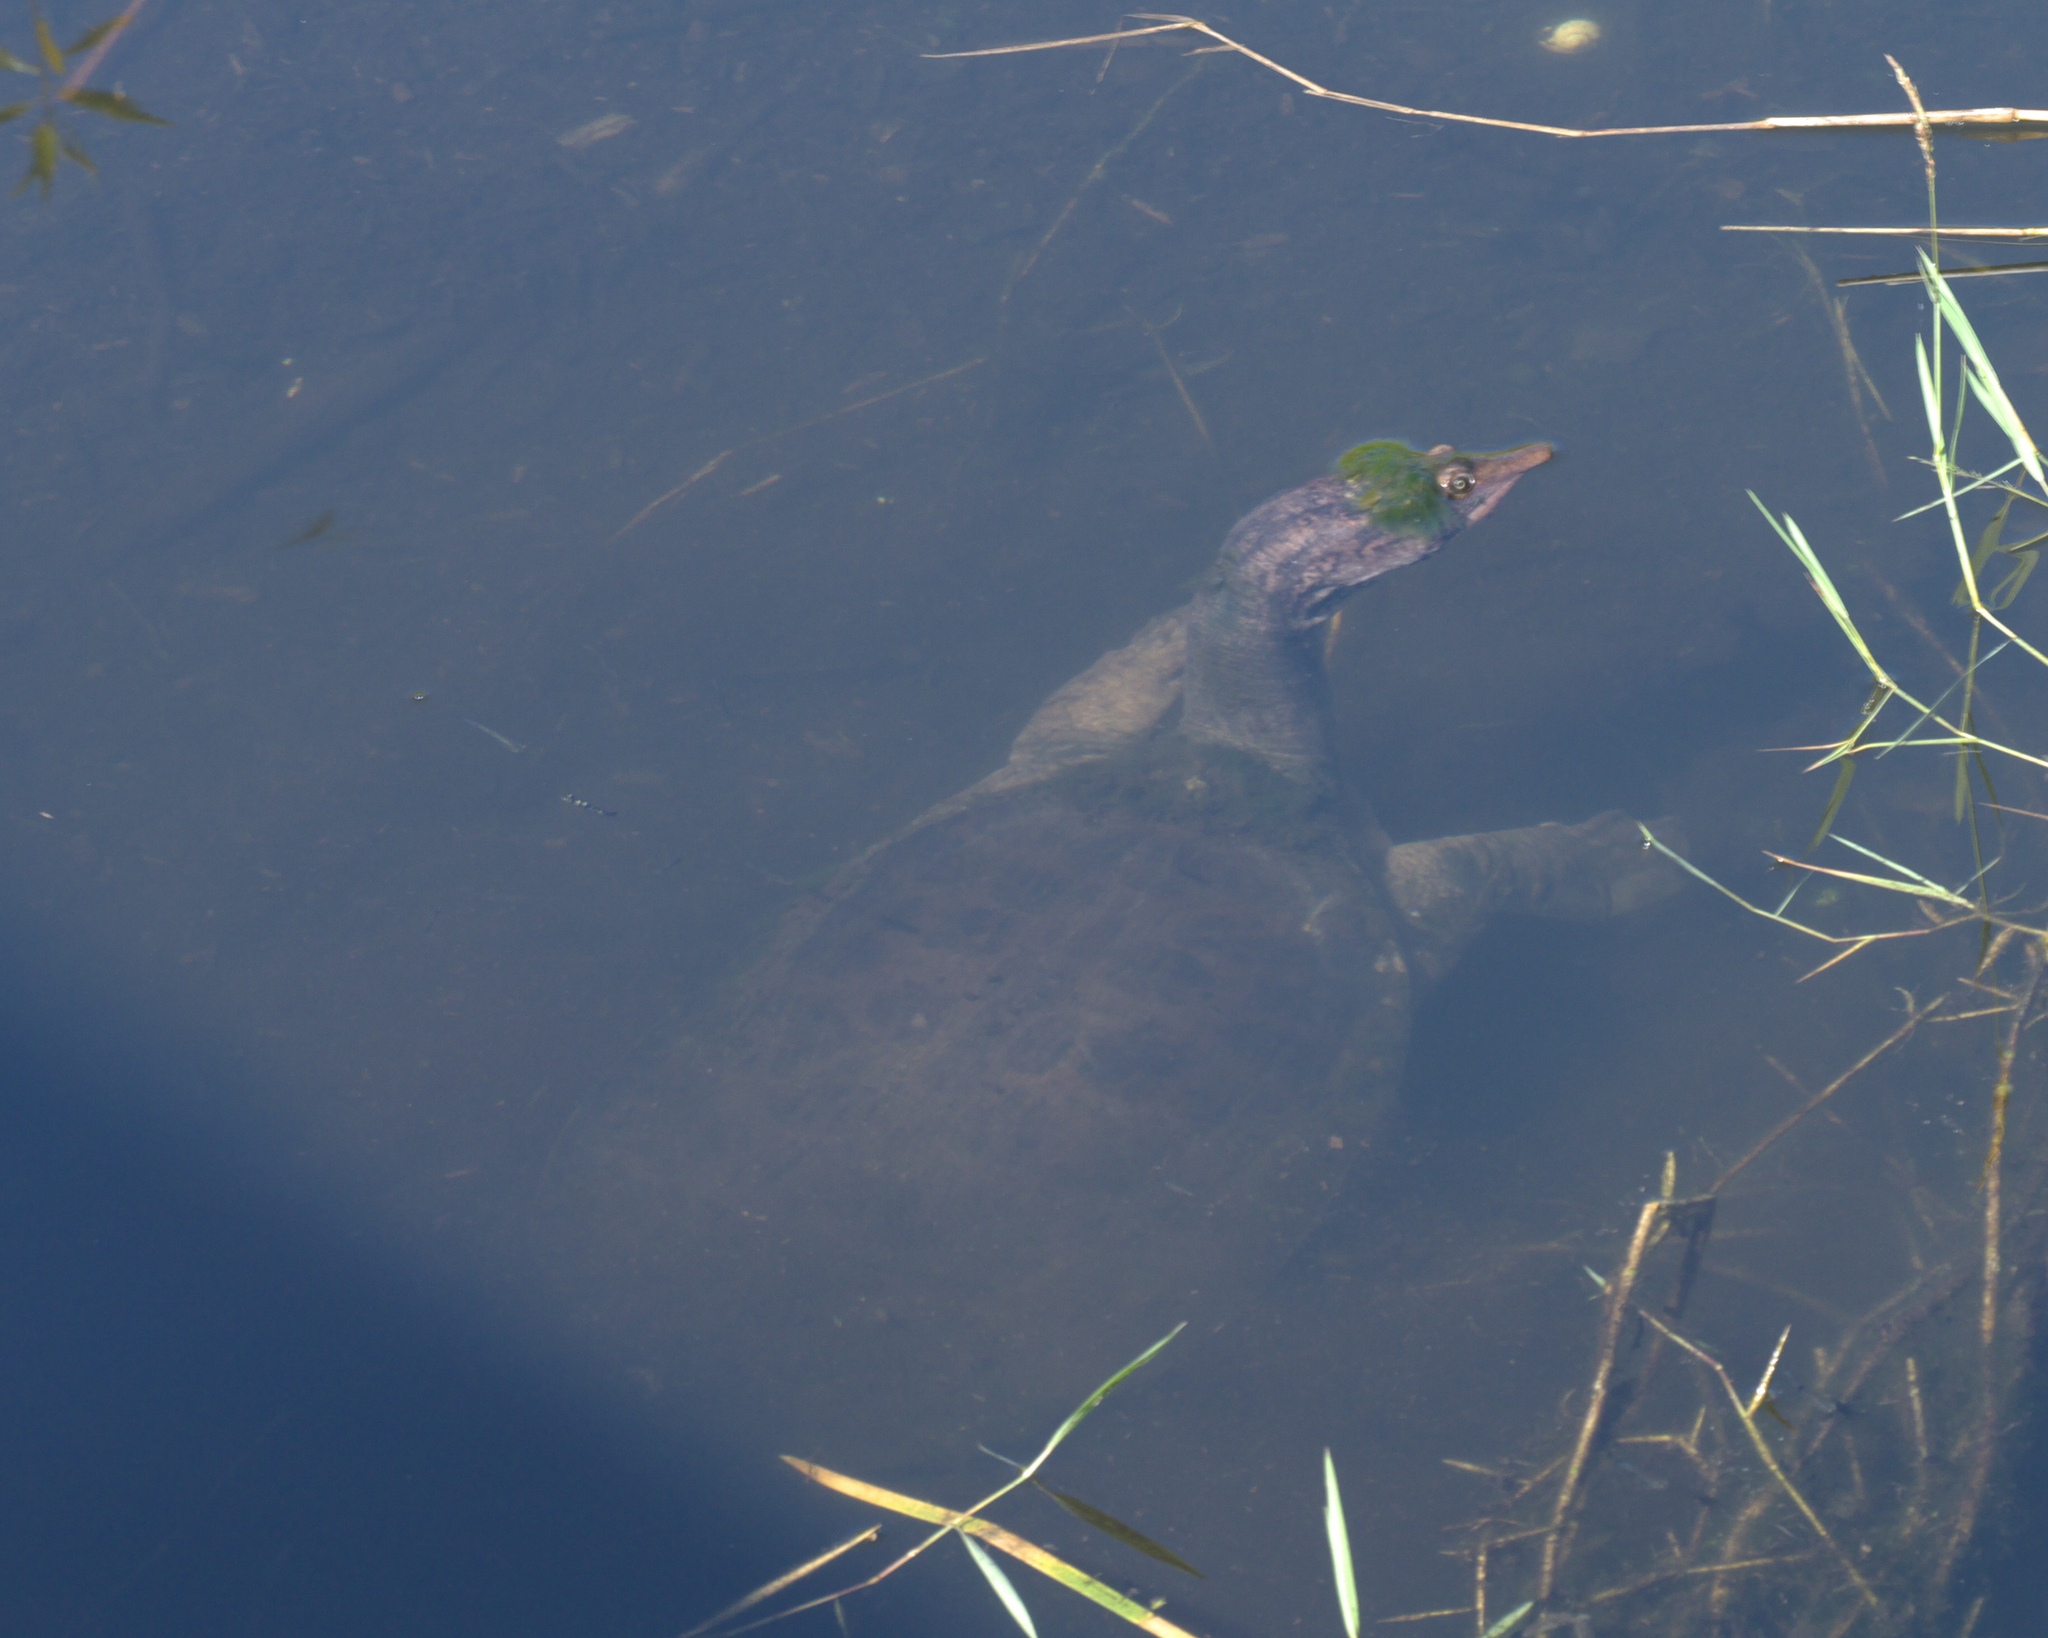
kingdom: Animalia
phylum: Chordata
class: Testudines
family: Trionychidae
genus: Apalone
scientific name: Apalone ferox
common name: Florida softshell turtle
